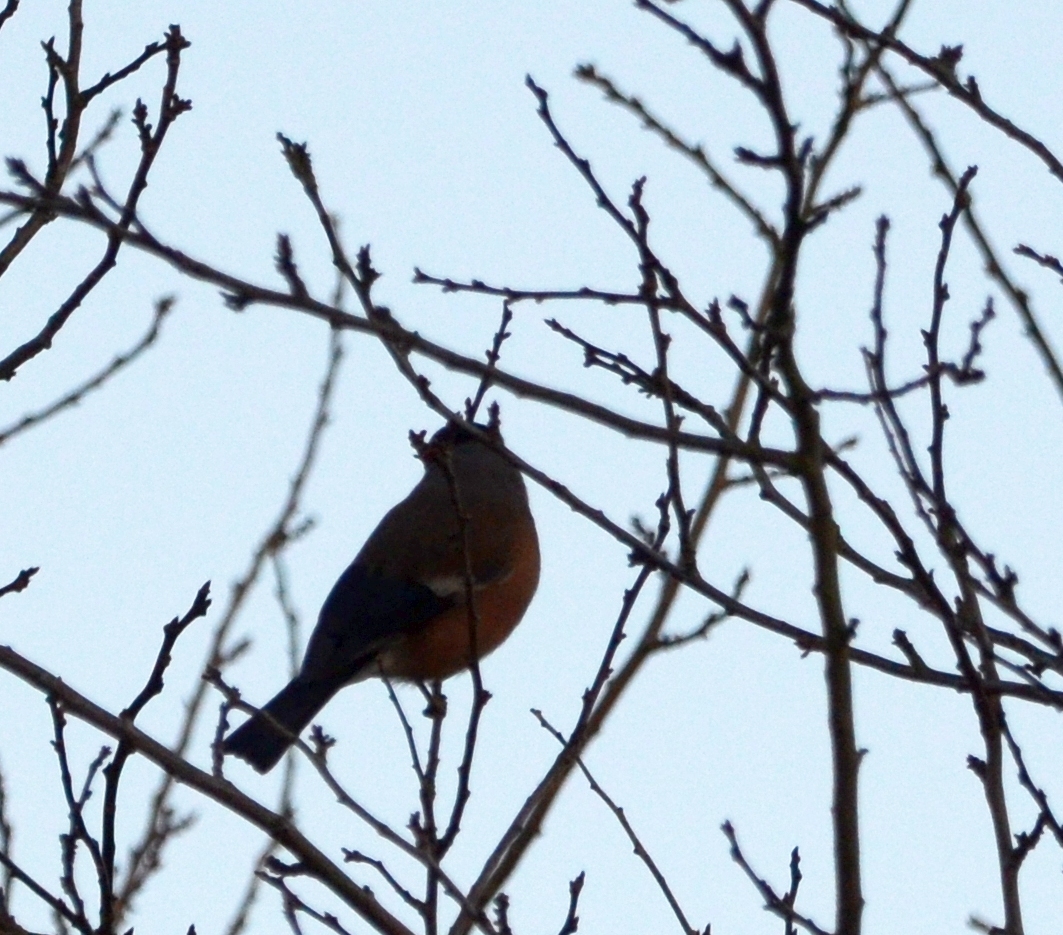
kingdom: Animalia
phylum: Chordata
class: Aves
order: Passeriformes
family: Fringillidae
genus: Pyrrhula
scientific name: Pyrrhula pyrrhula
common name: Eurasian bullfinch
